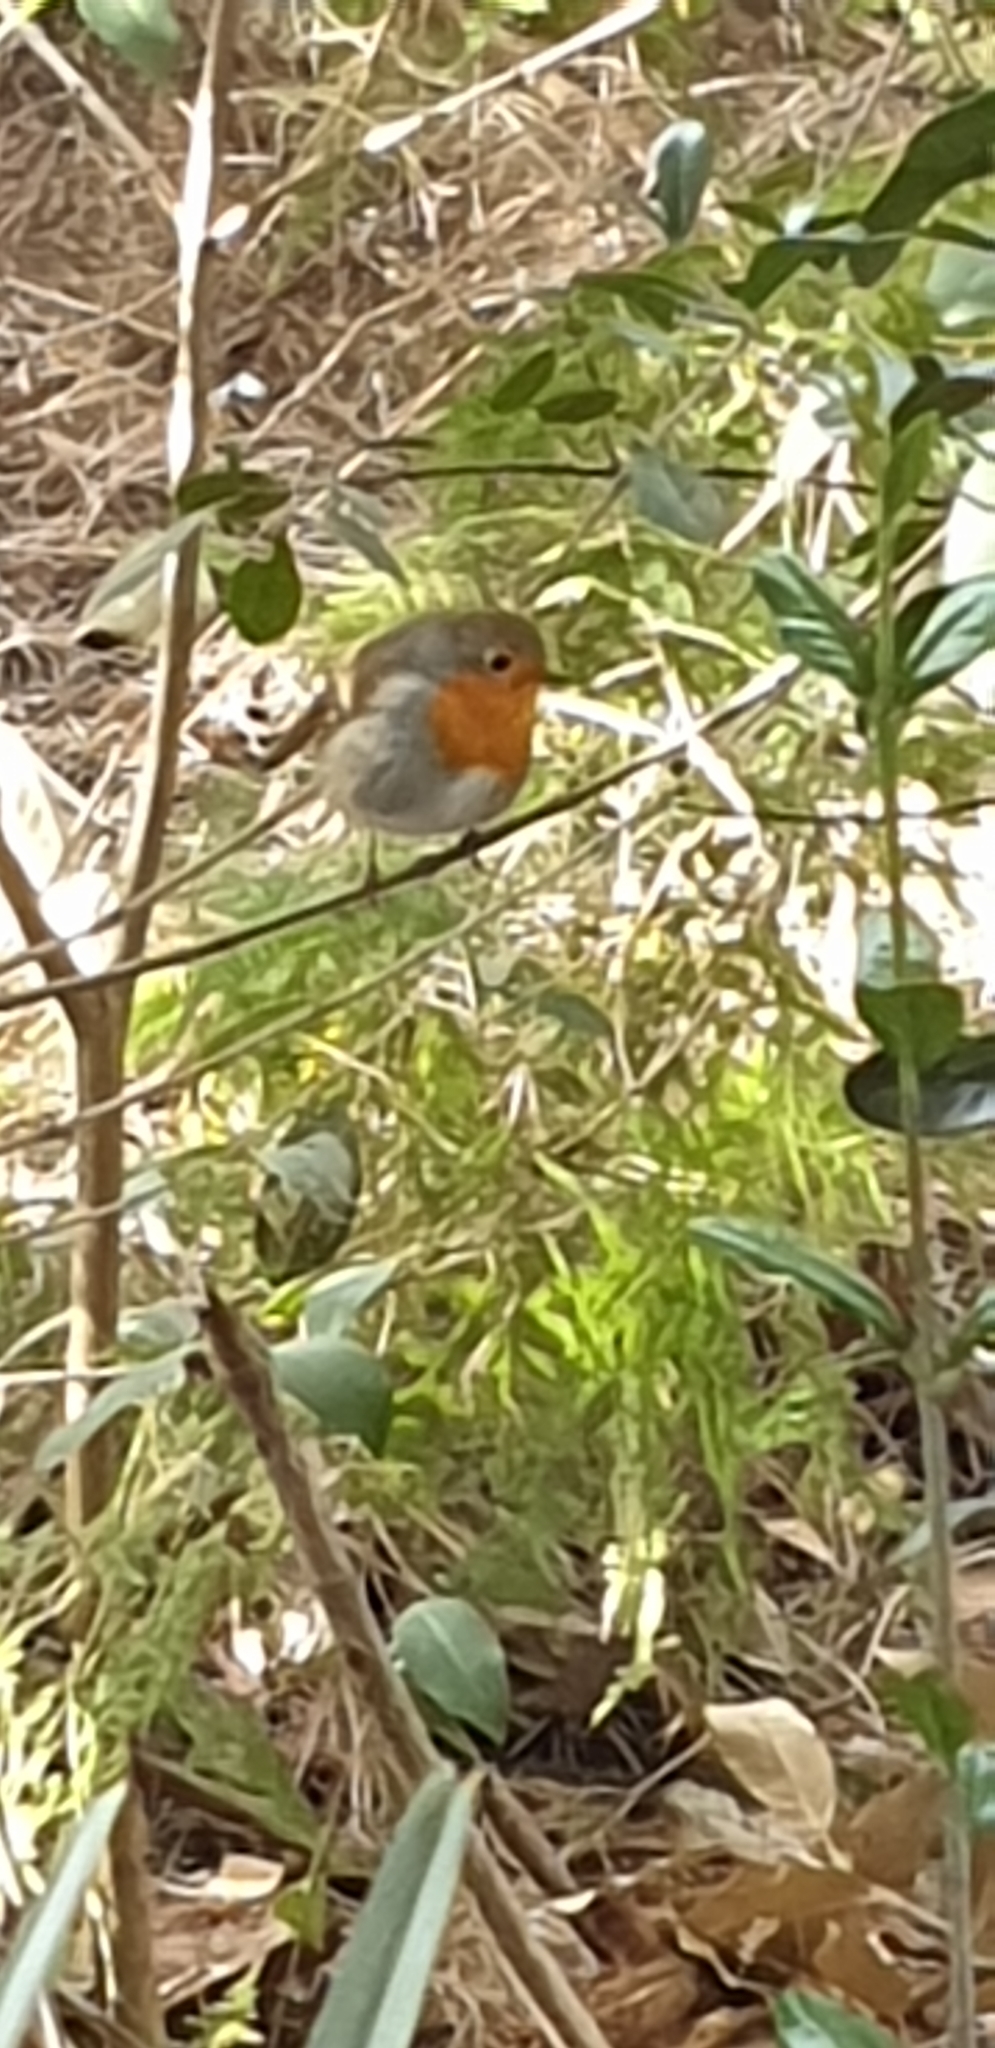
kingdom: Animalia
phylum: Chordata
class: Aves
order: Passeriformes
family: Muscicapidae
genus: Erithacus
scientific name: Erithacus rubecula
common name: European robin
